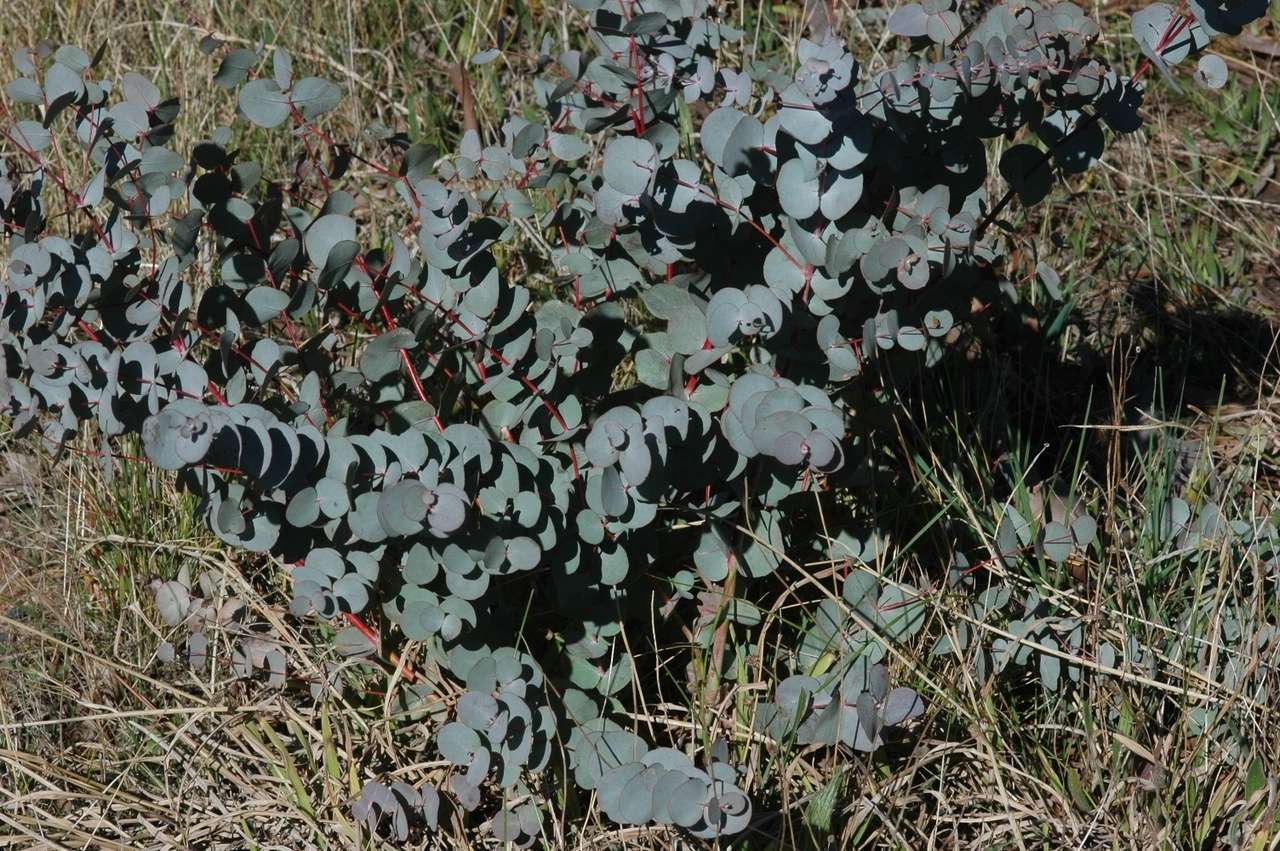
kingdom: Plantae
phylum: Tracheophyta
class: Magnoliopsida
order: Myrtales
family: Myrtaceae
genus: Eucalyptus
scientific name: Eucalyptus rubida
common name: Candlebark
